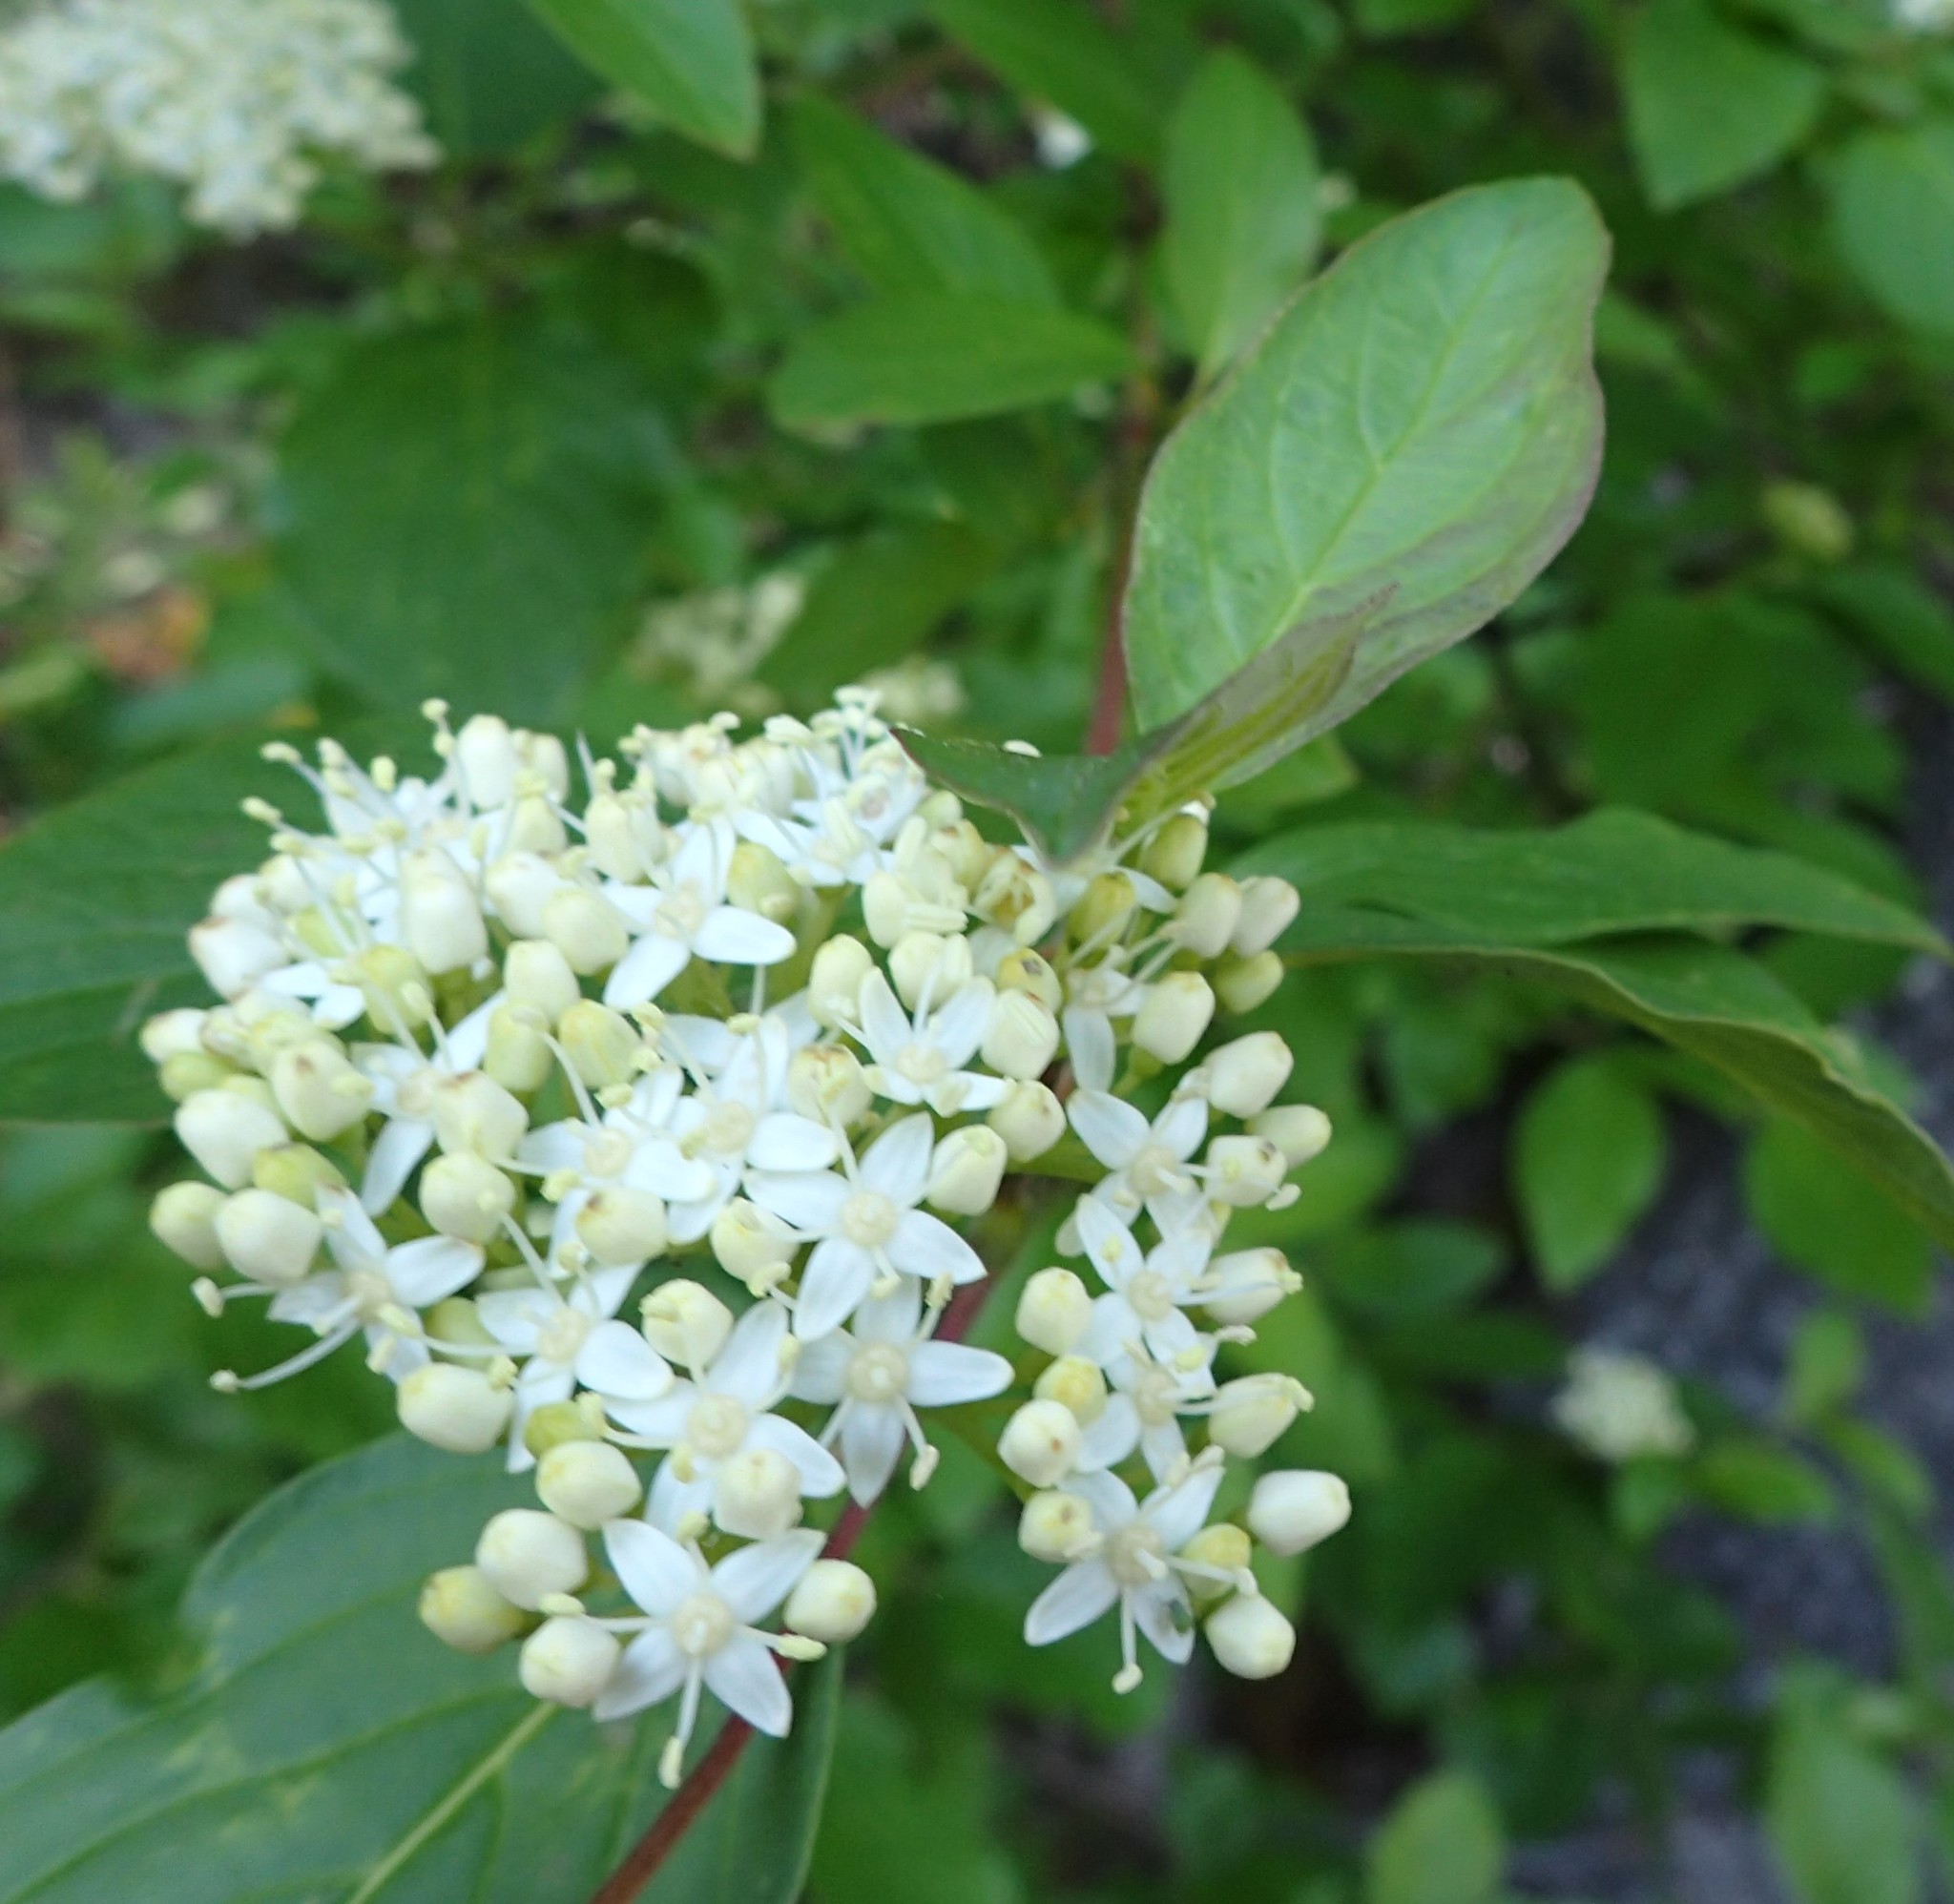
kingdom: Plantae
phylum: Tracheophyta
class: Magnoliopsida
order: Cornales
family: Cornaceae
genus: Cornus
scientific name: Cornus sericea
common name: Red-osier dogwood
